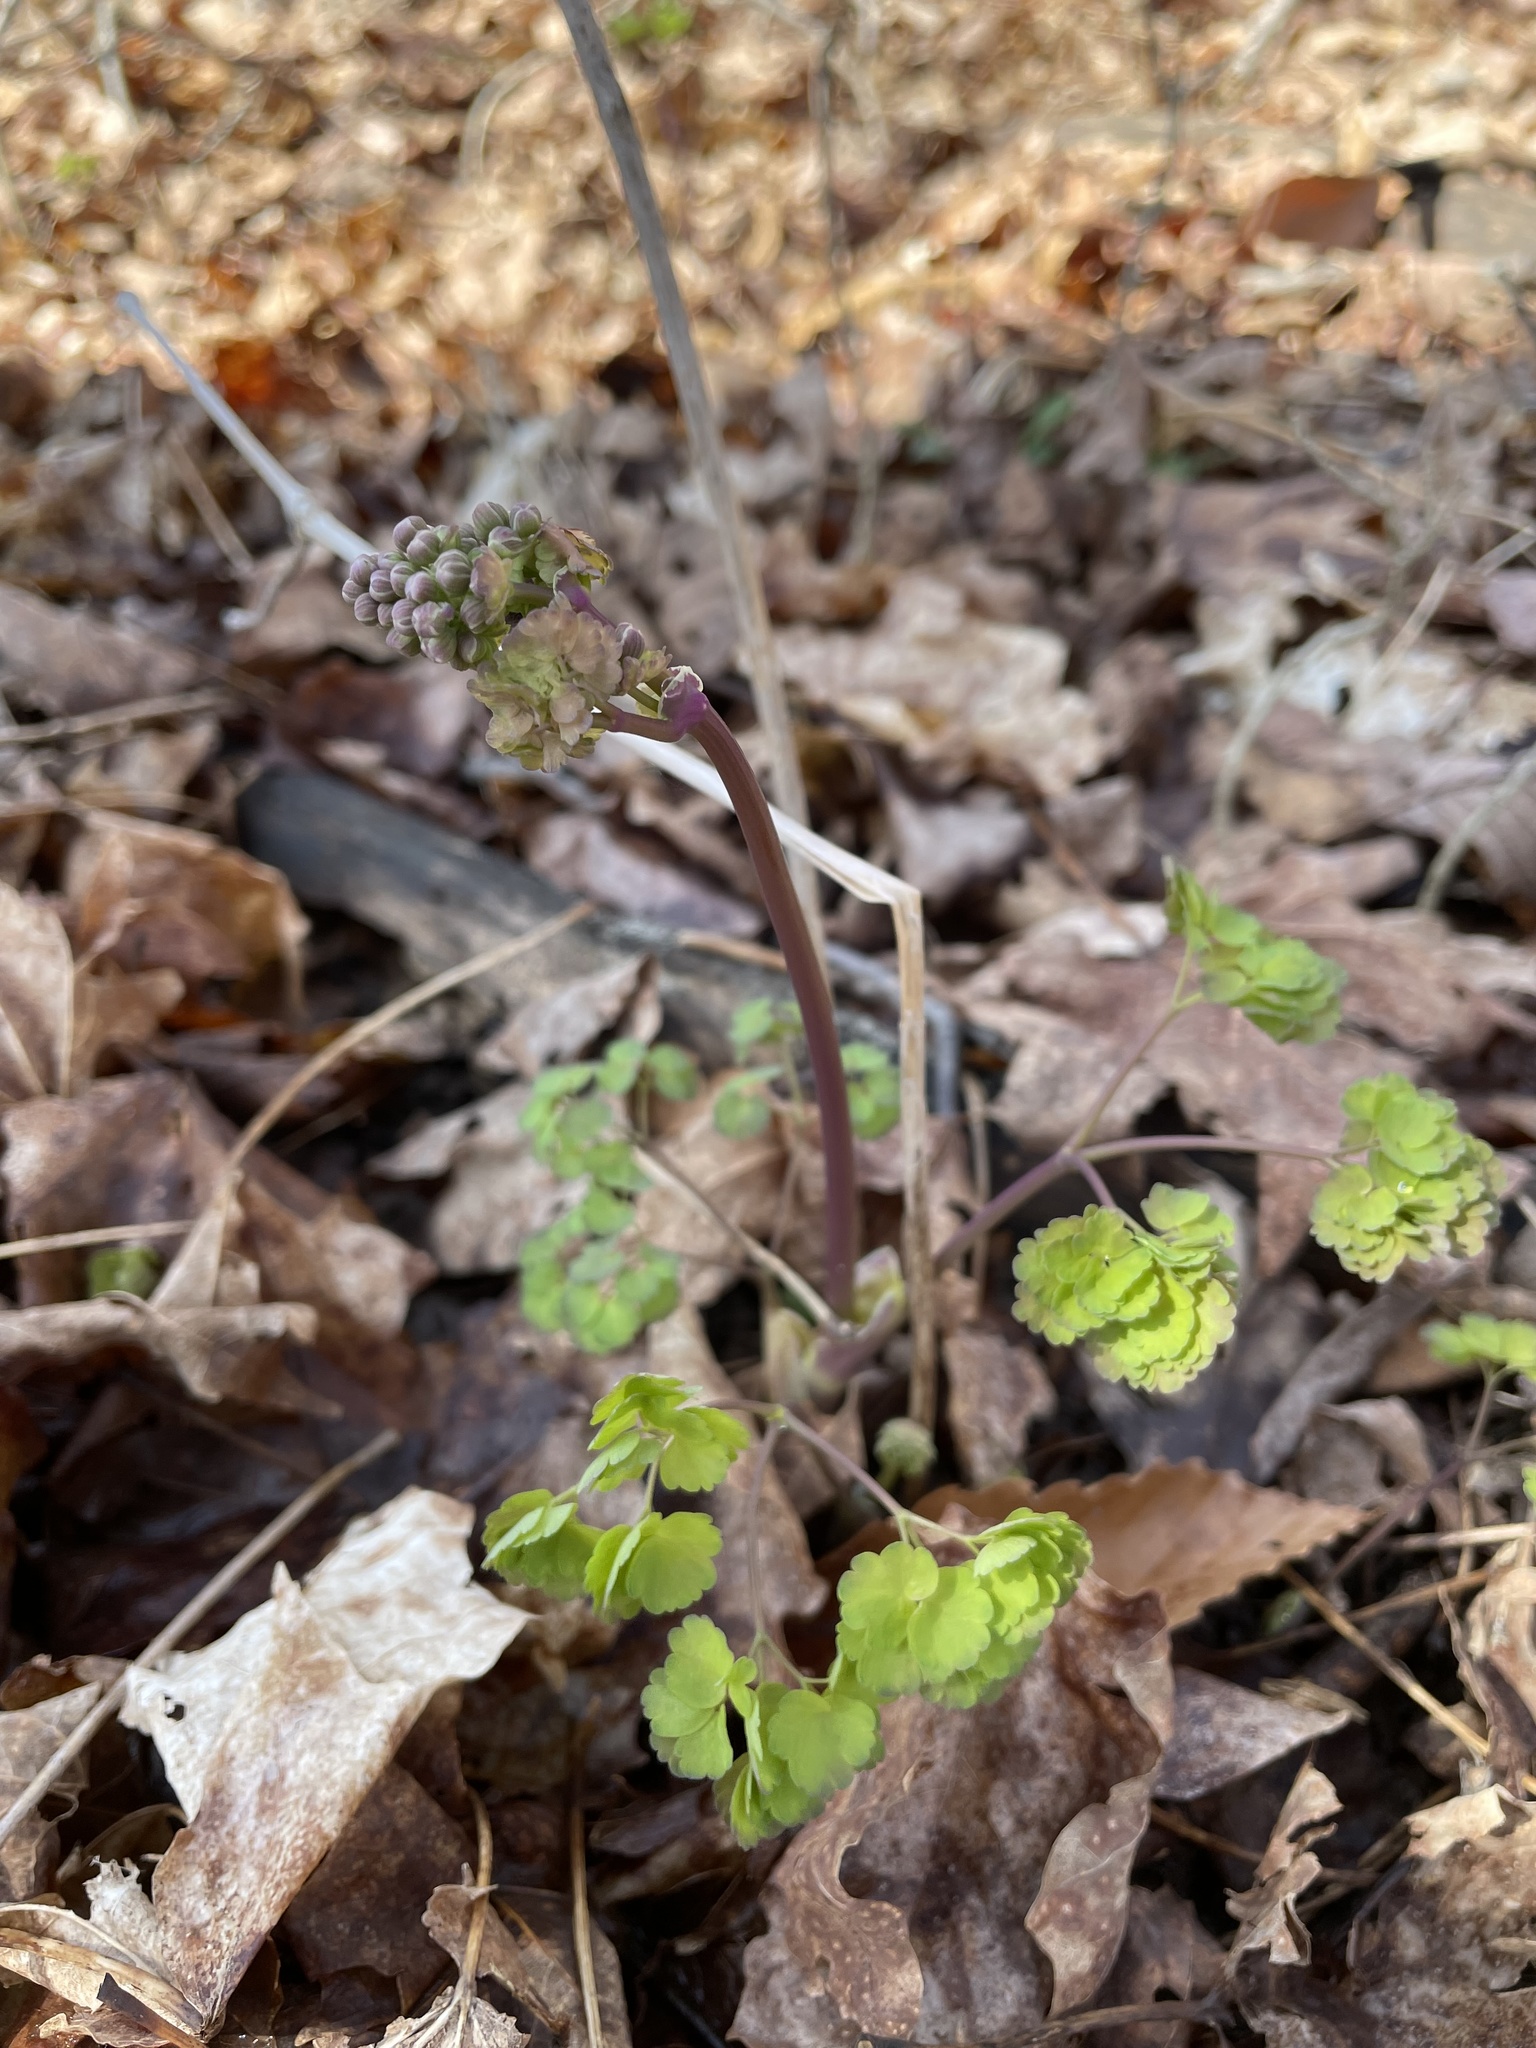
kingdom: Plantae
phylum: Tracheophyta
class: Magnoliopsida
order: Ranunculales
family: Ranunculaceae
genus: Thalictrum
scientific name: Thalictrum dioicum
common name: Early meadow-rue
